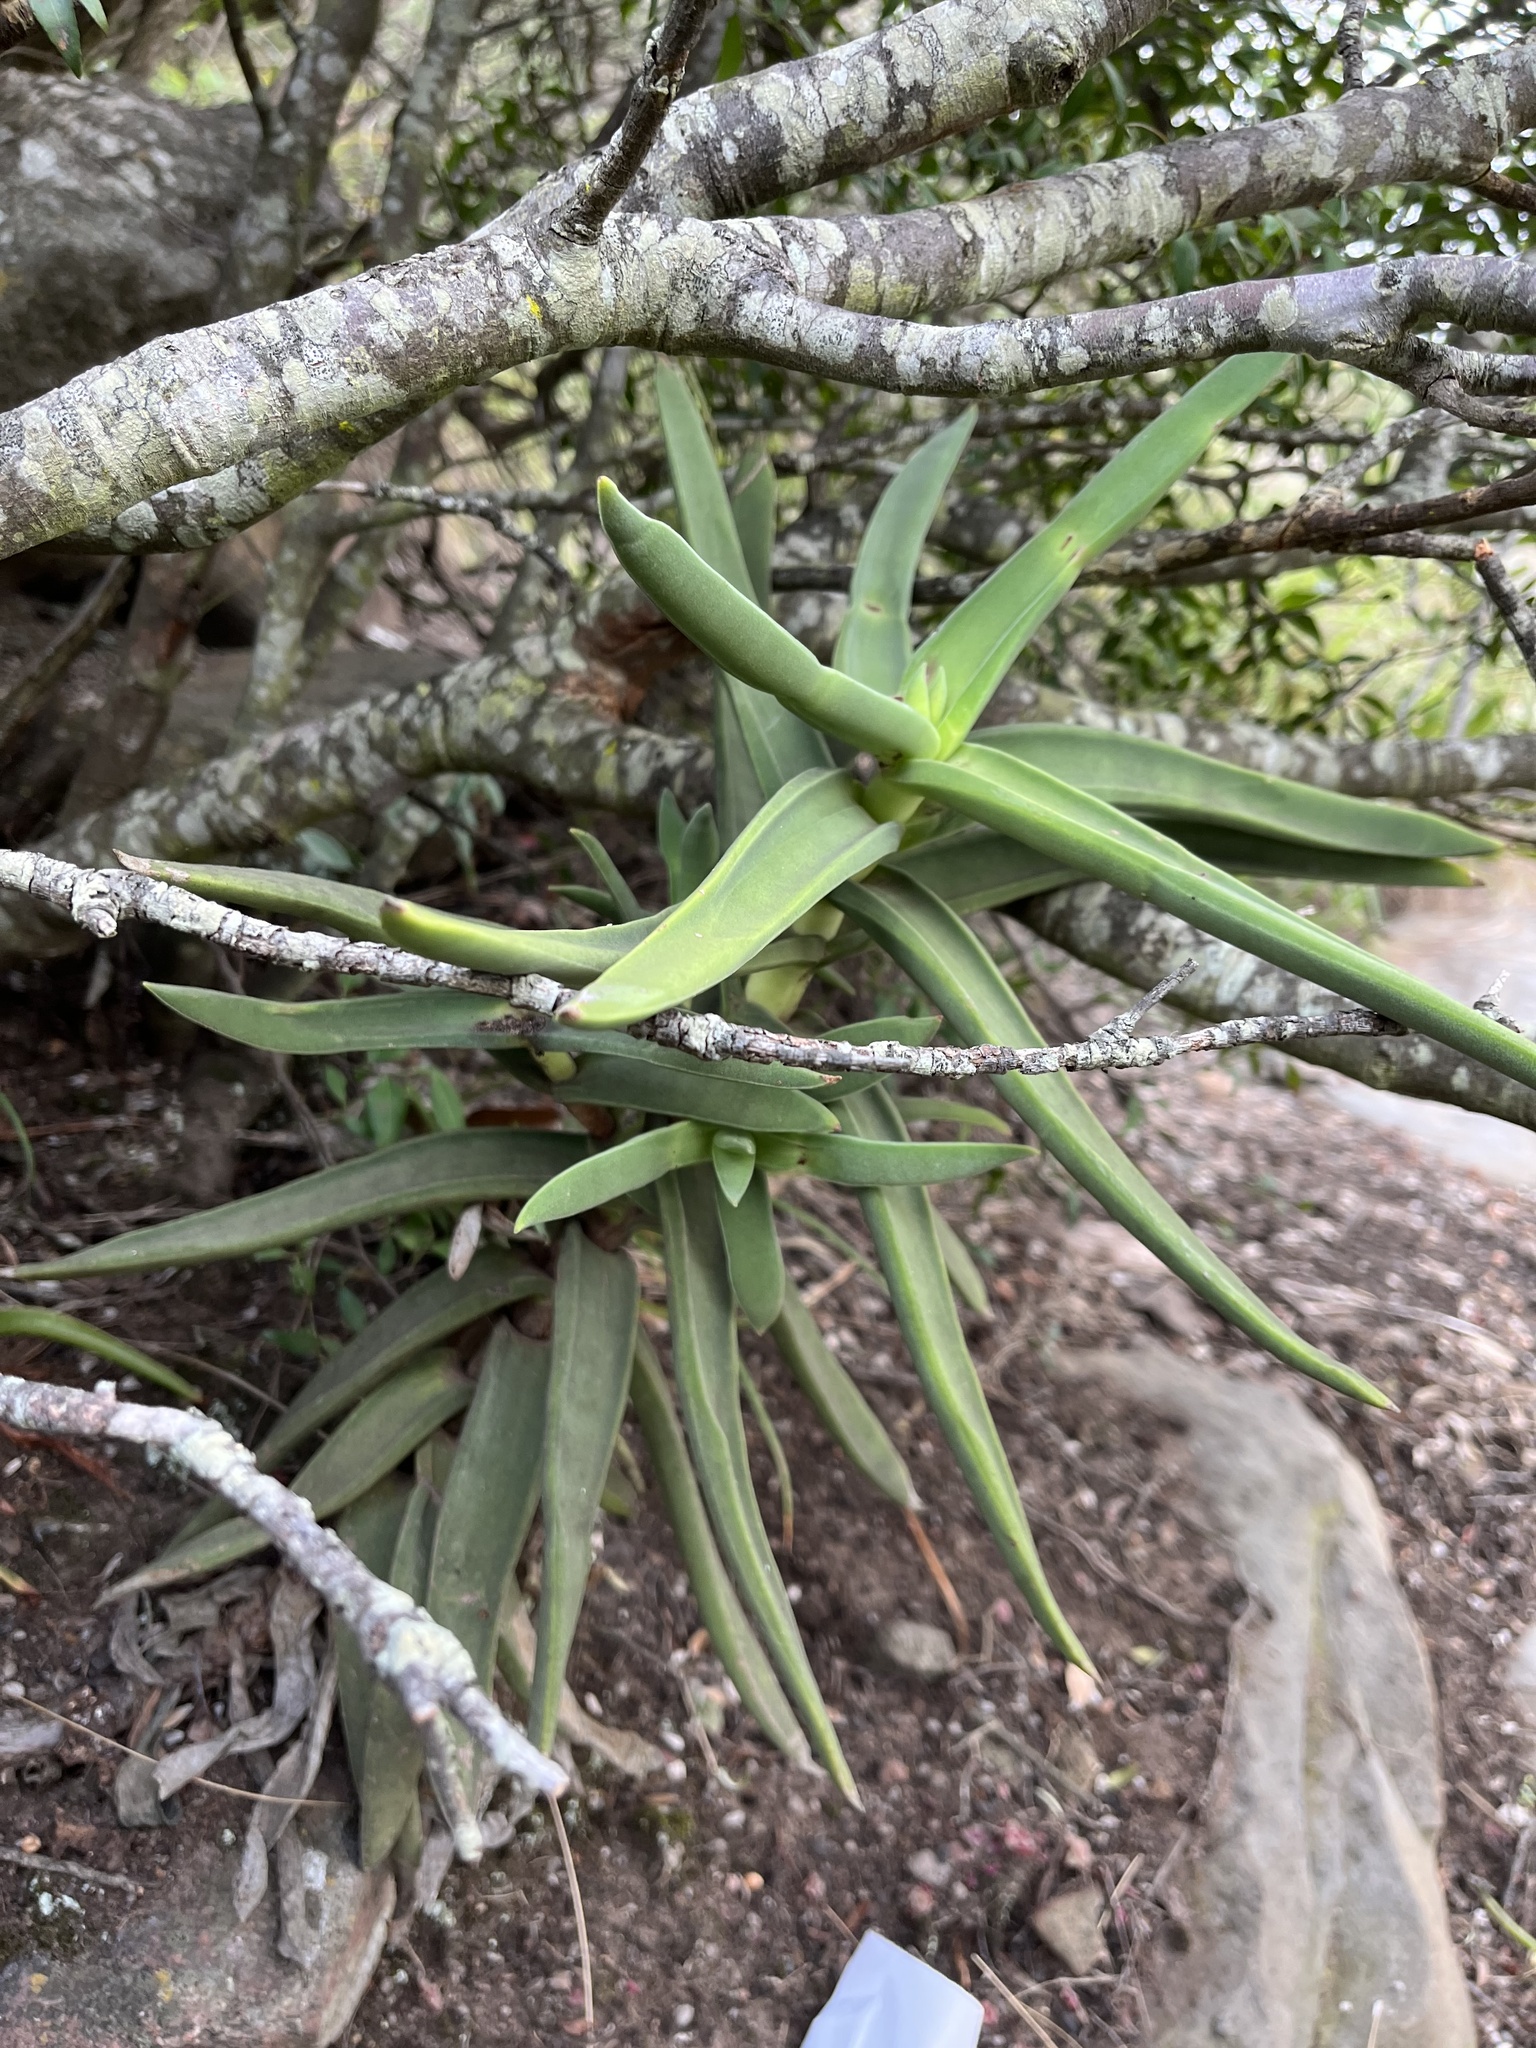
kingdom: Plantae
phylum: Tracheophyta
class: Magnoliopsida
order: Saxifragales
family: Crassulaceae
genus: Crassula
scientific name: Crassula perfoliata
